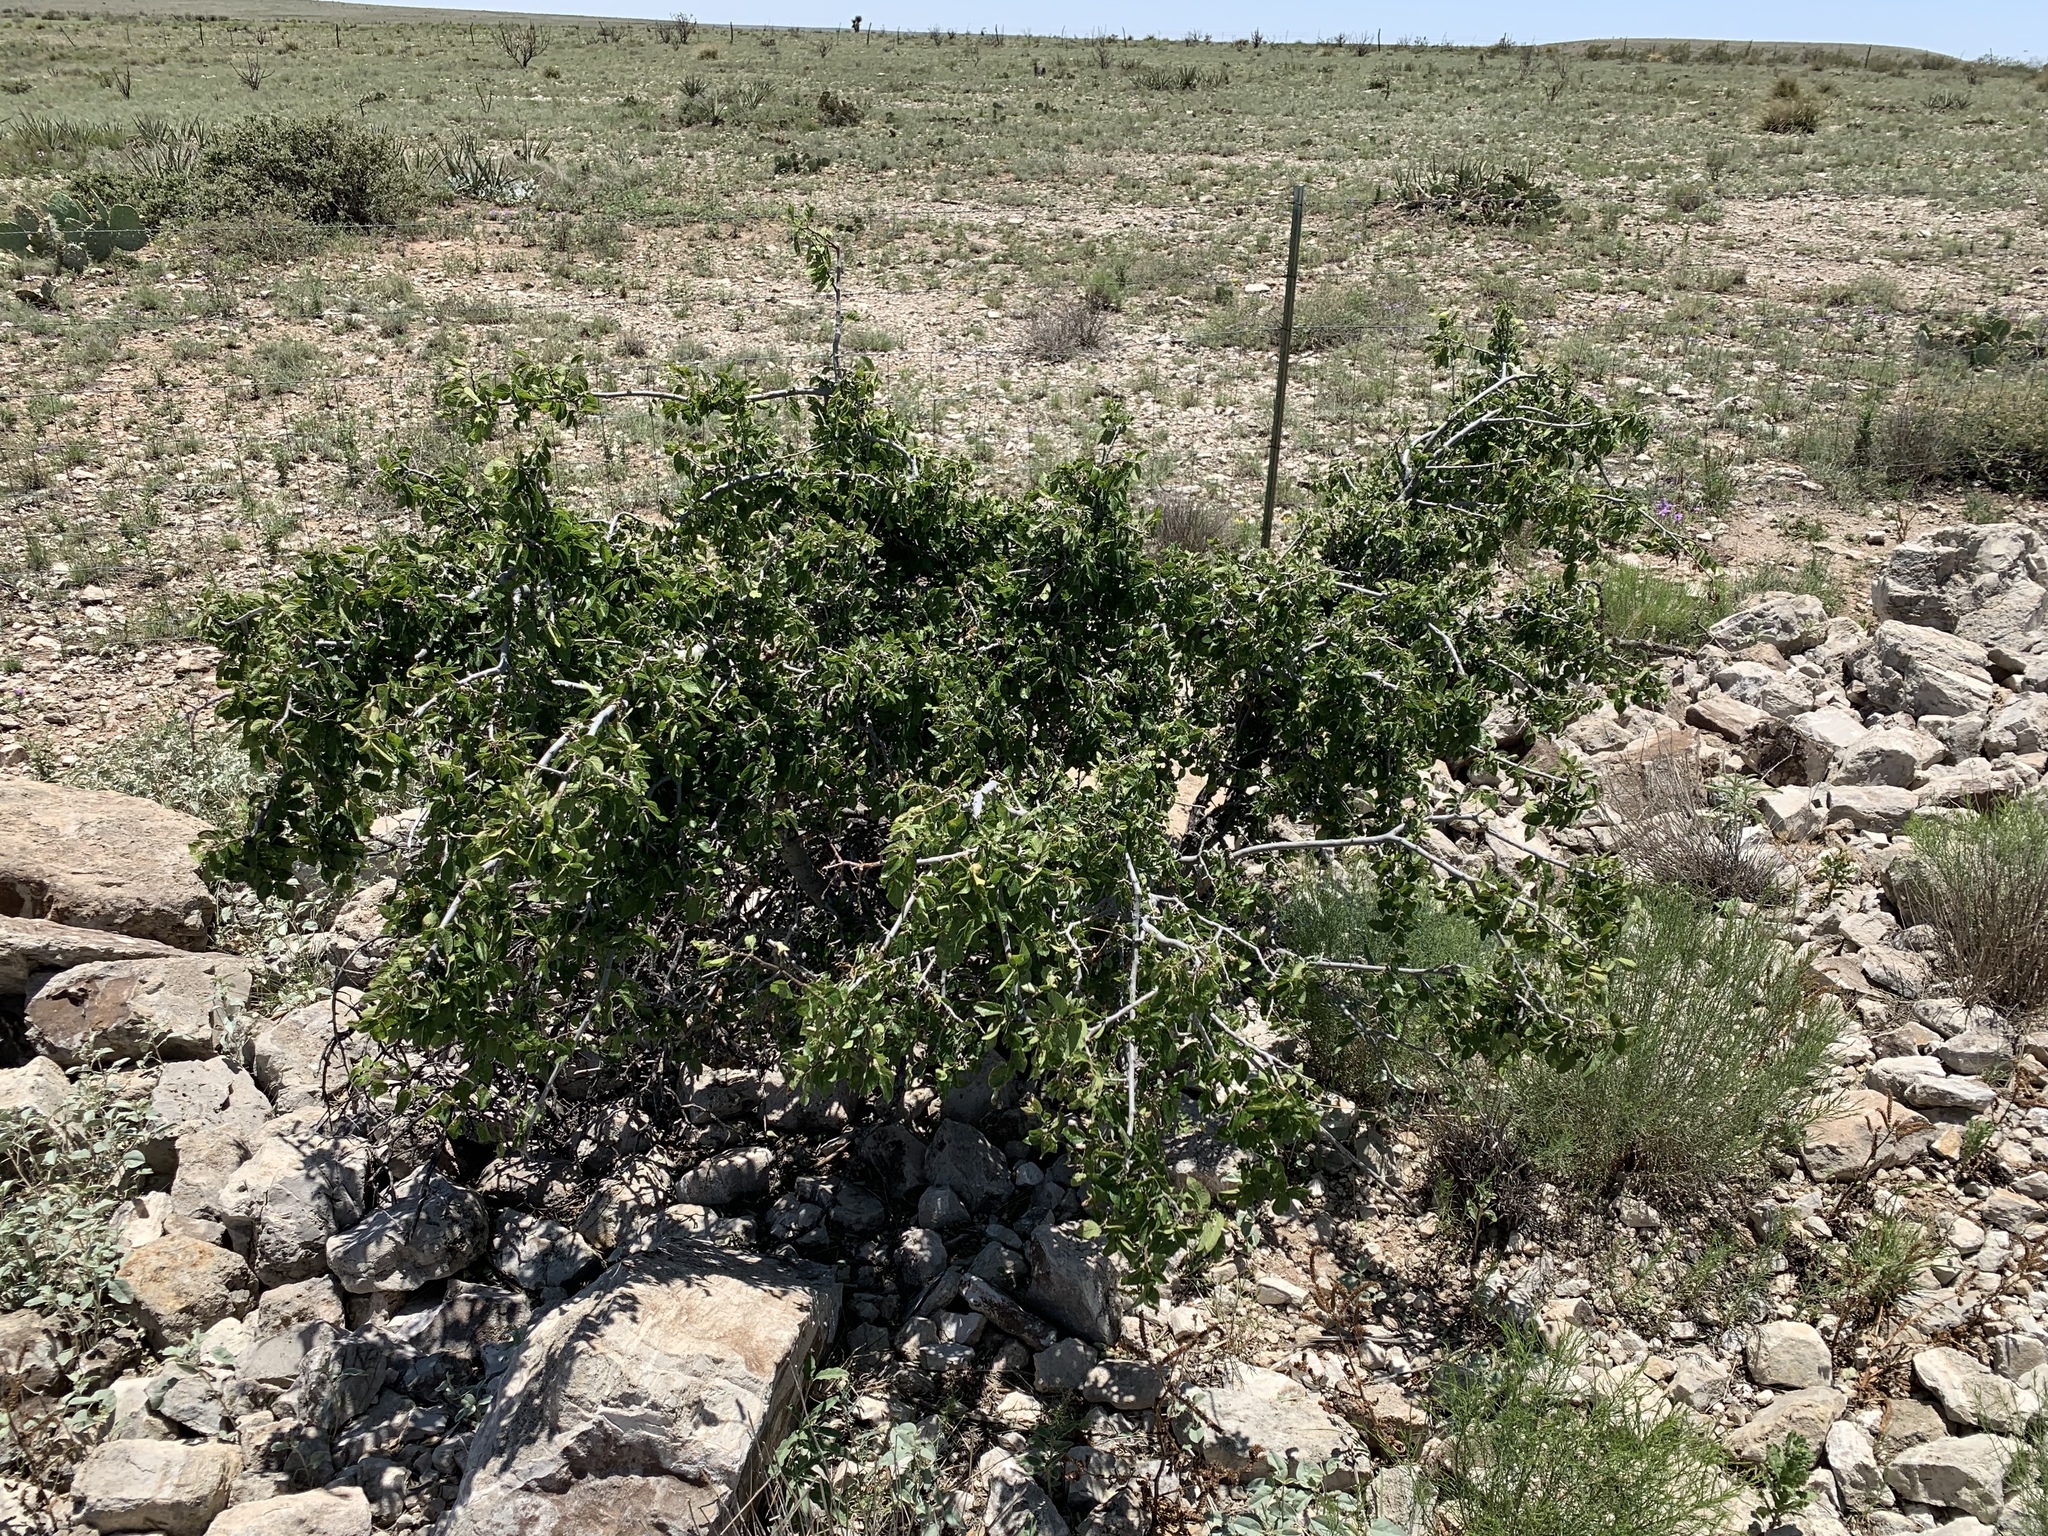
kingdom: Plantae
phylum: Tracheophyta
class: Magnoliopsida
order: Rosales
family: Cannabaceae
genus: Celtis
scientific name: Celtis reticulata
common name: Netleaf hackberry
